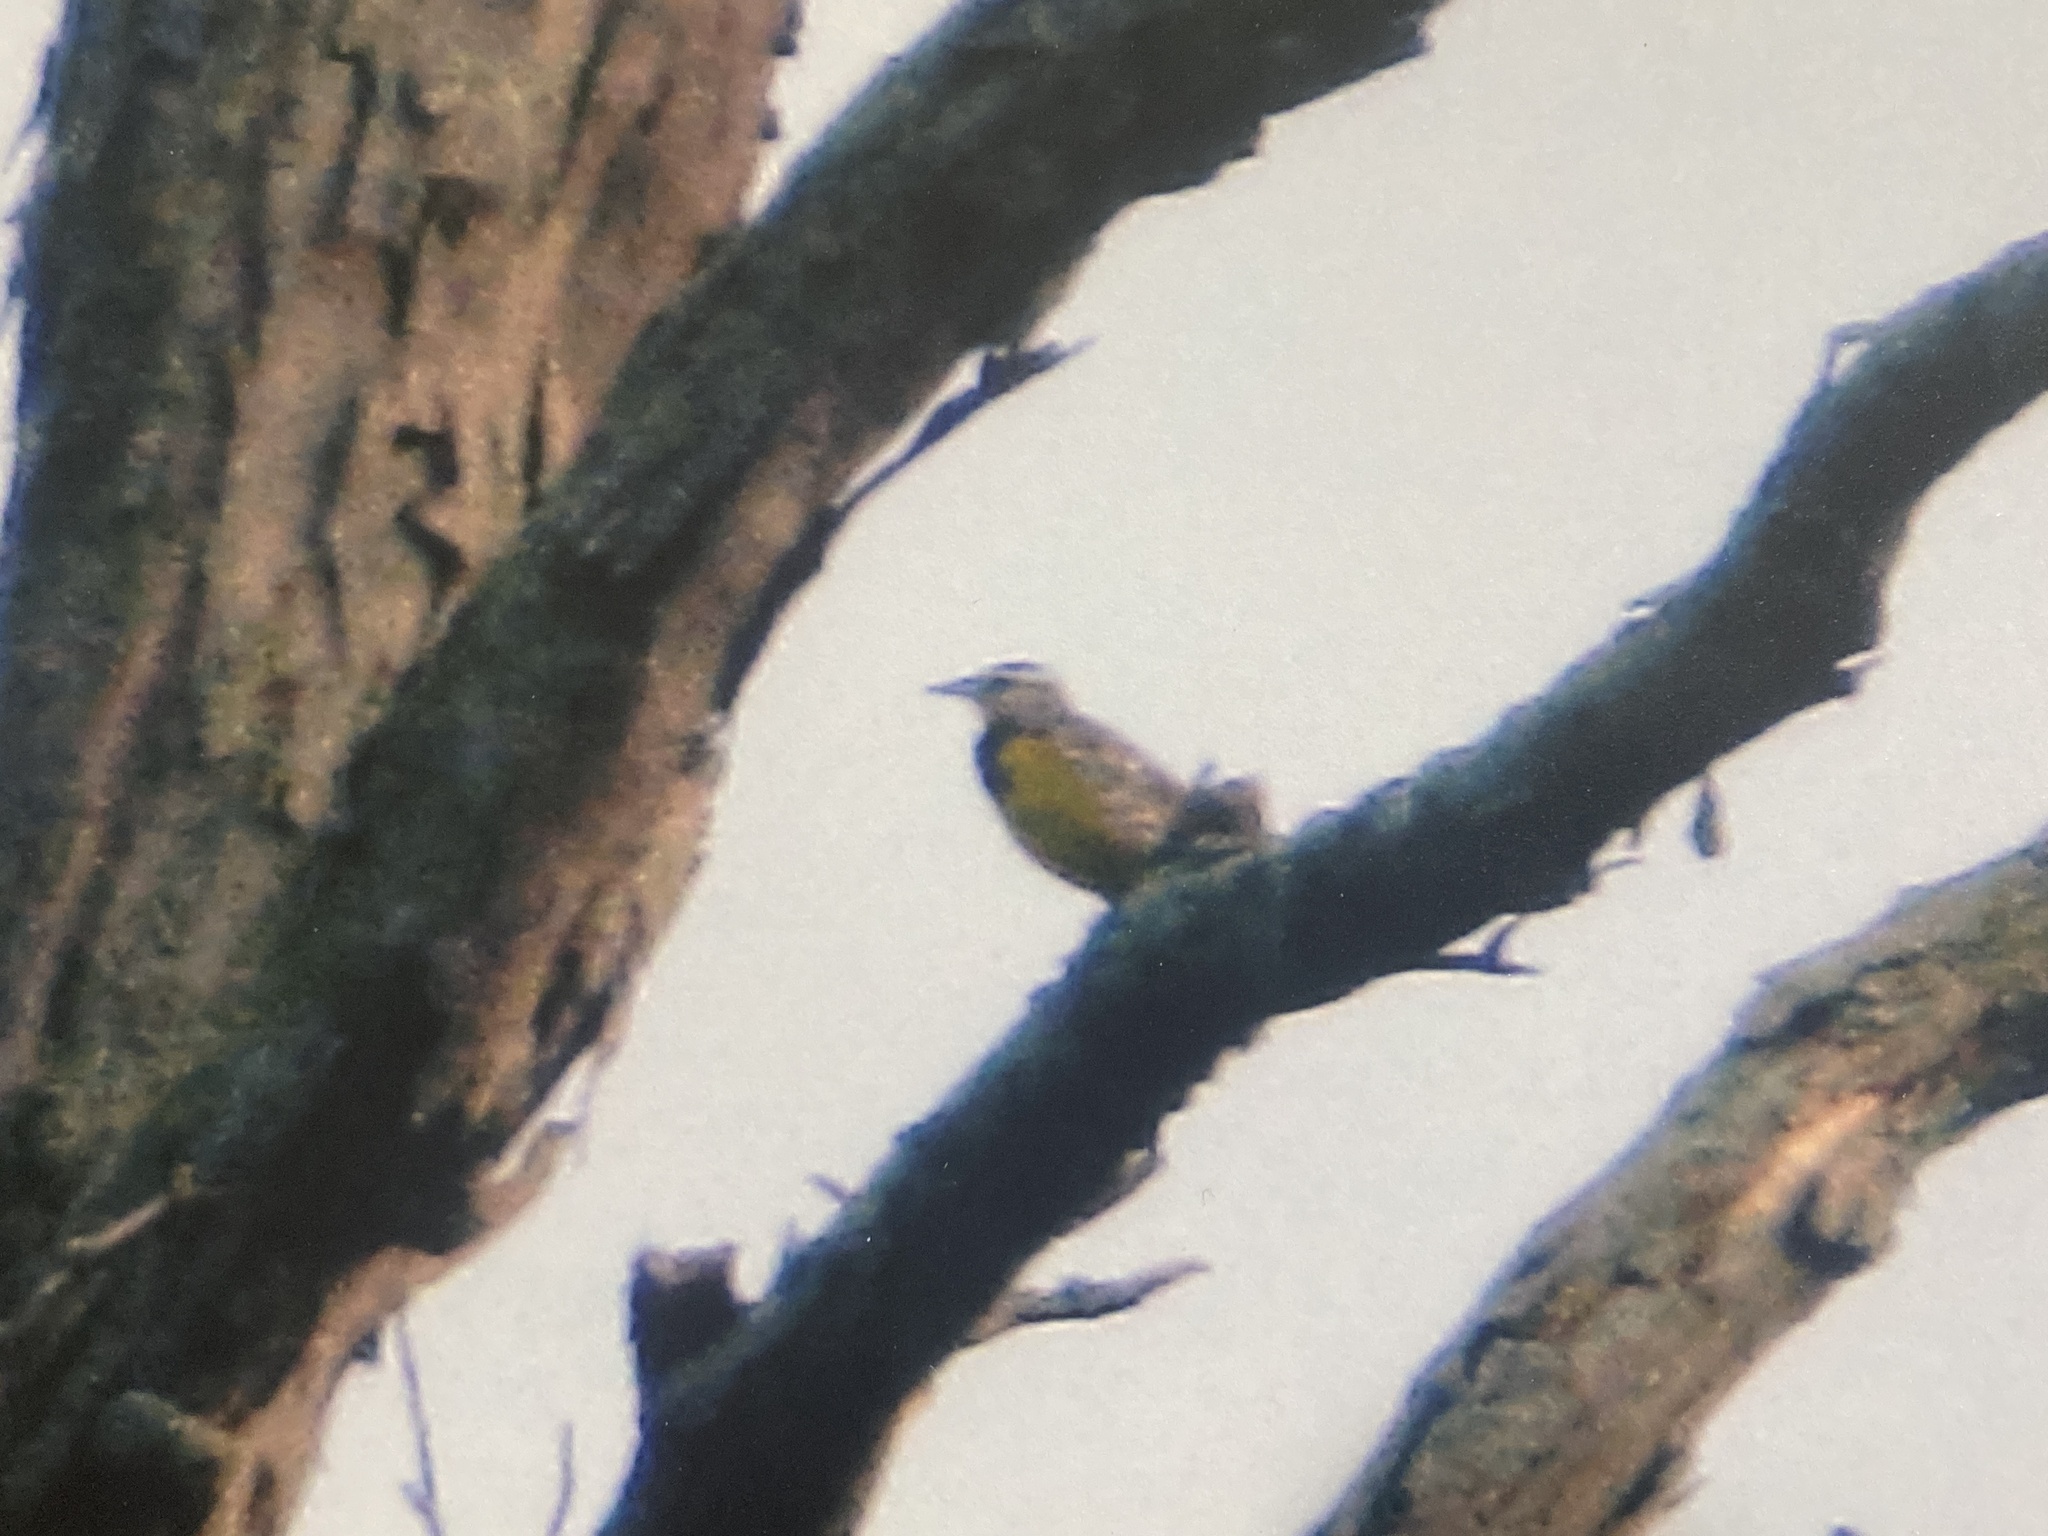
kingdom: Animalia
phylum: Chordata
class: Aves
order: Passeriformes
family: Icteridae
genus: Sturnella
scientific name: Sturnella magna
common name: Eastern meadowlark
